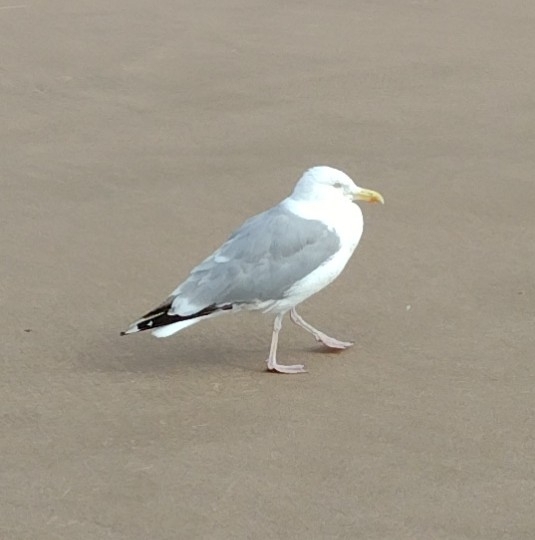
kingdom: Animalia
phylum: Chordata
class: Aves
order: Charadriiformes
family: Laridae
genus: Larus
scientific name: Larus argentatus
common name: Herring gull
